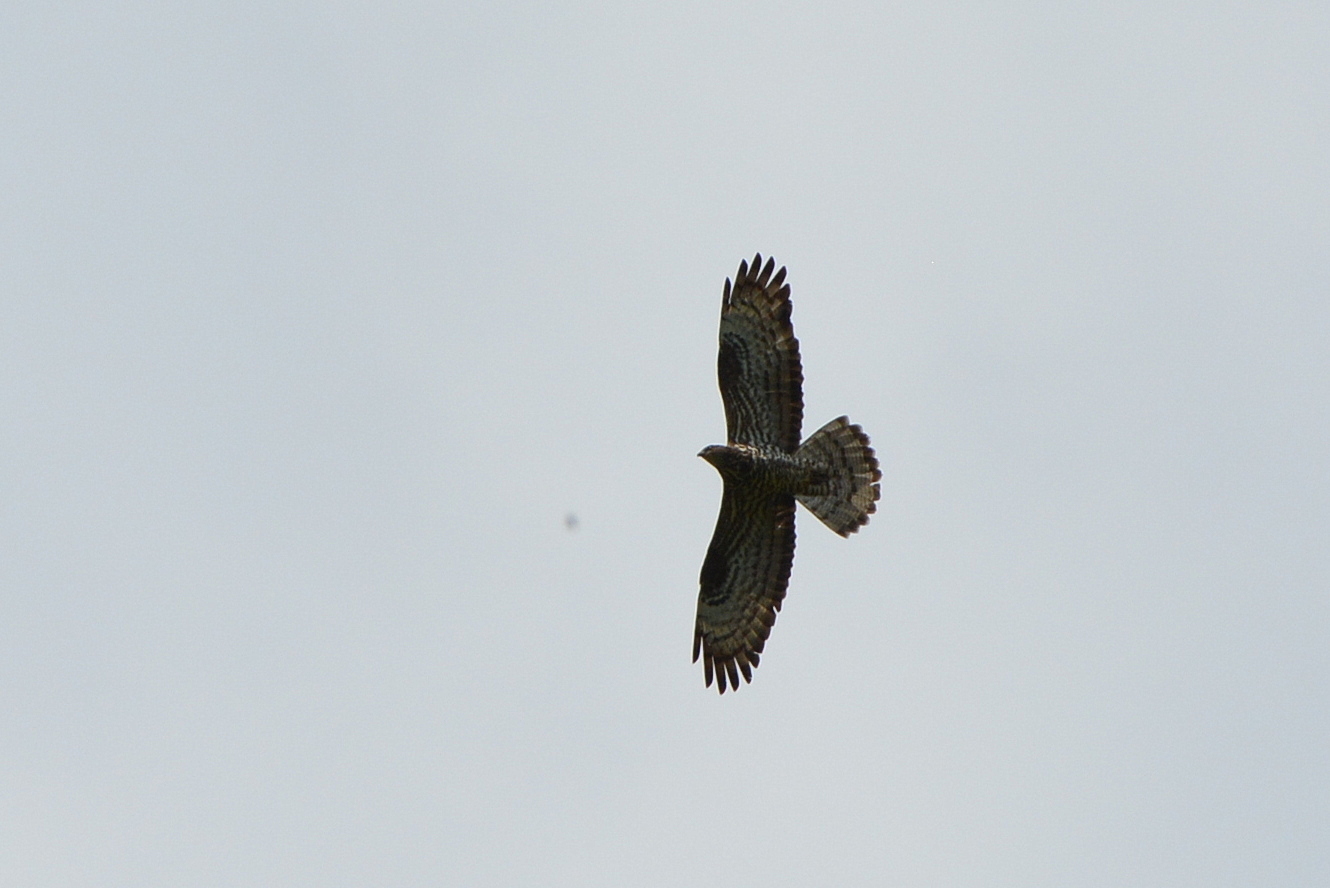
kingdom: Animalia
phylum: Chordata
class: Aves
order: Accipitriformes
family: Accipitridae
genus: Pernis
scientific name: Pernis apivorus
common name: European honey buzzard
